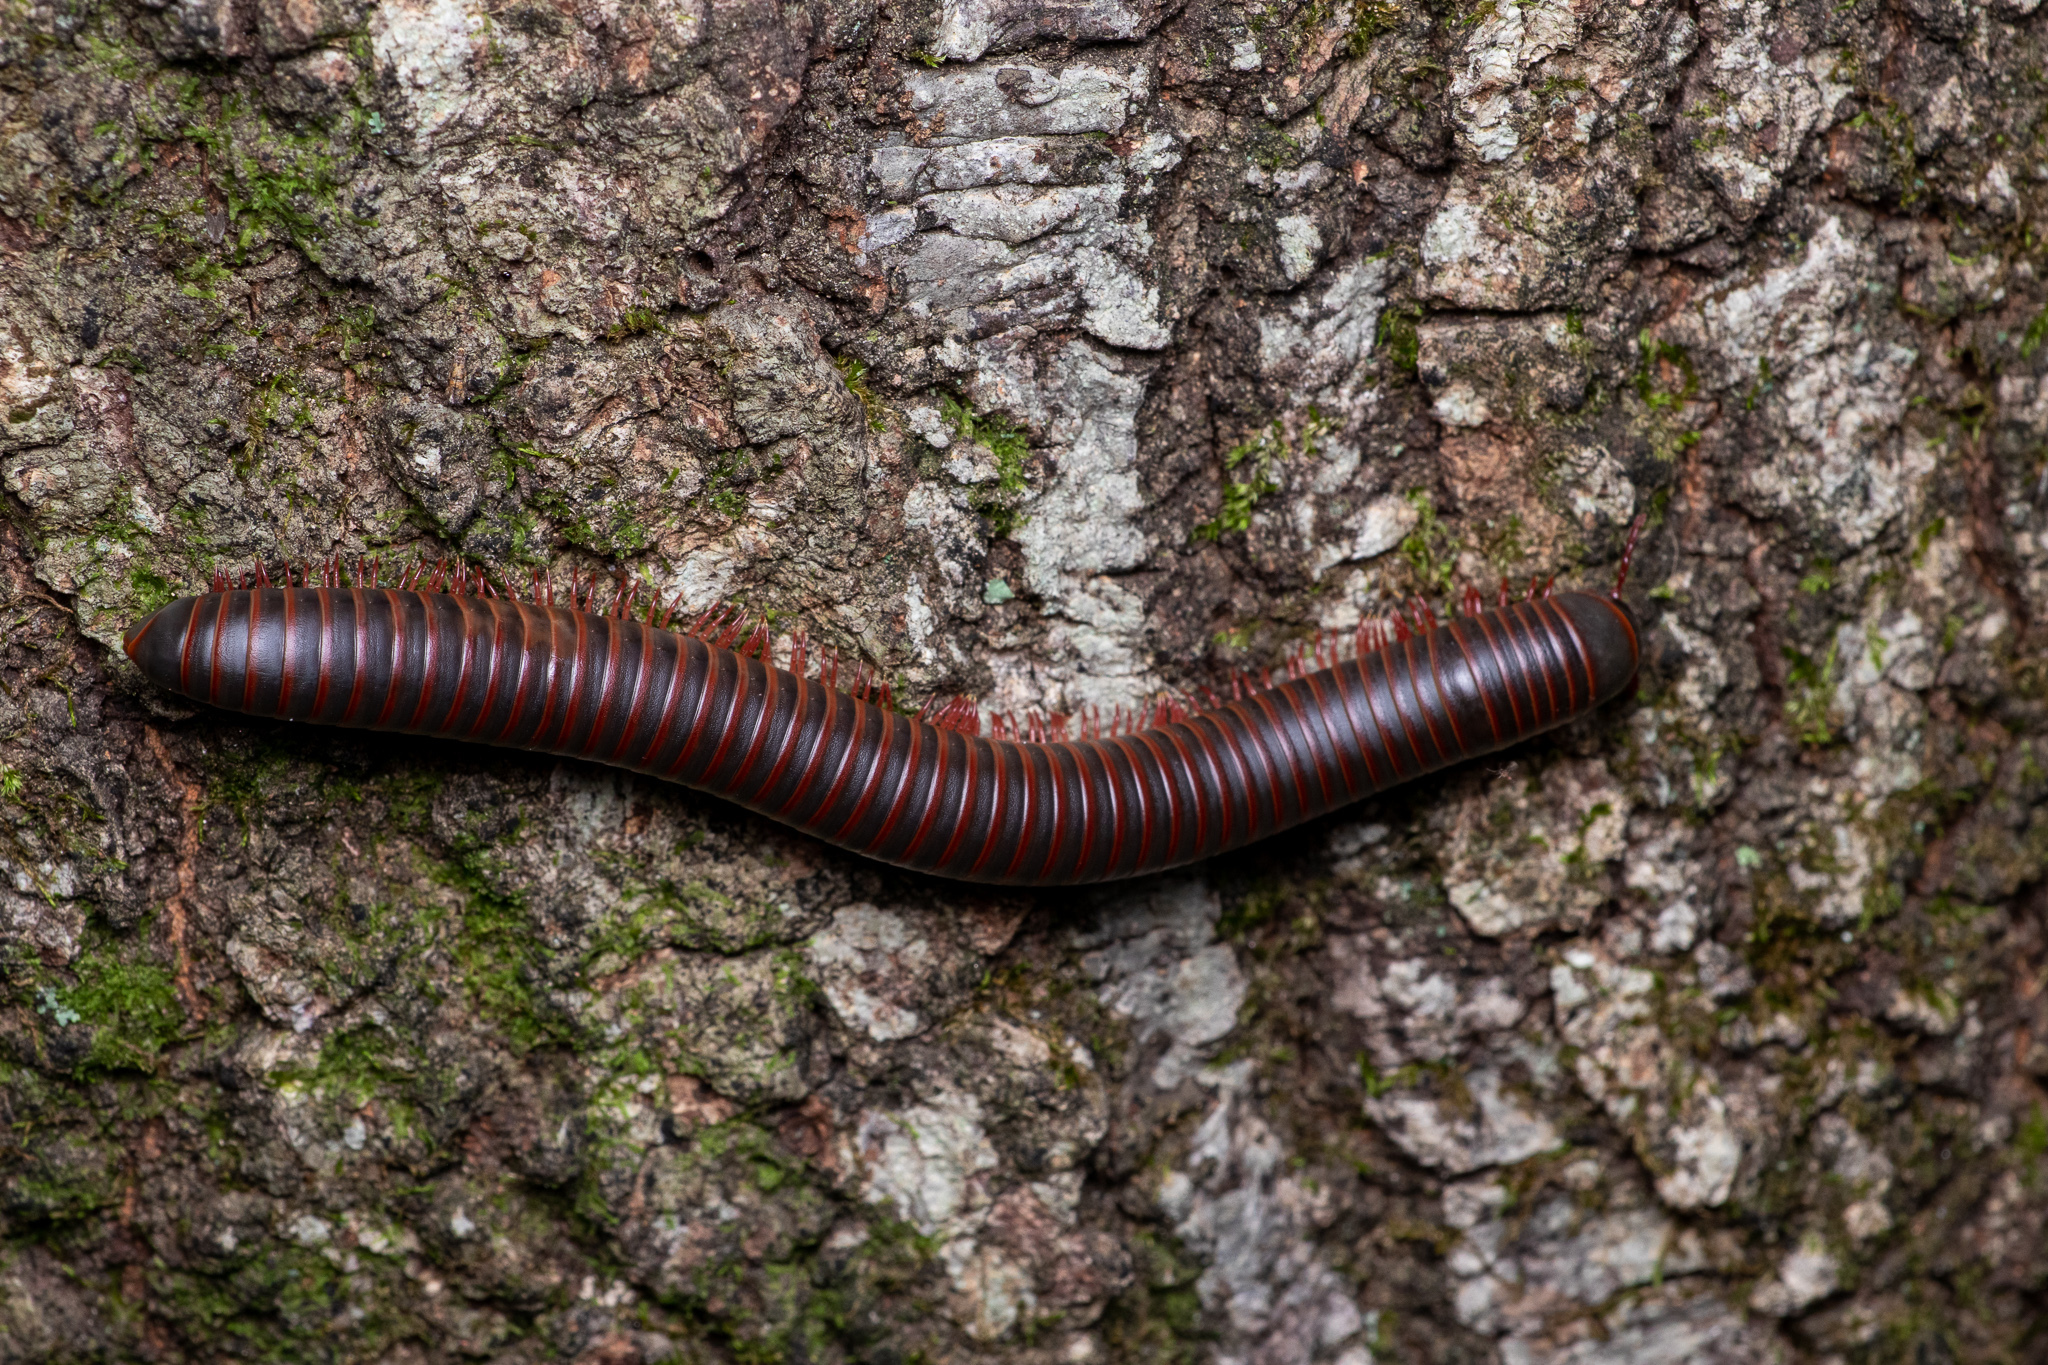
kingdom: Animalia
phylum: Arthropoda
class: Diplopoda
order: Spirobolida
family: Spirobolidae
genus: Narceus
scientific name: Narceus
